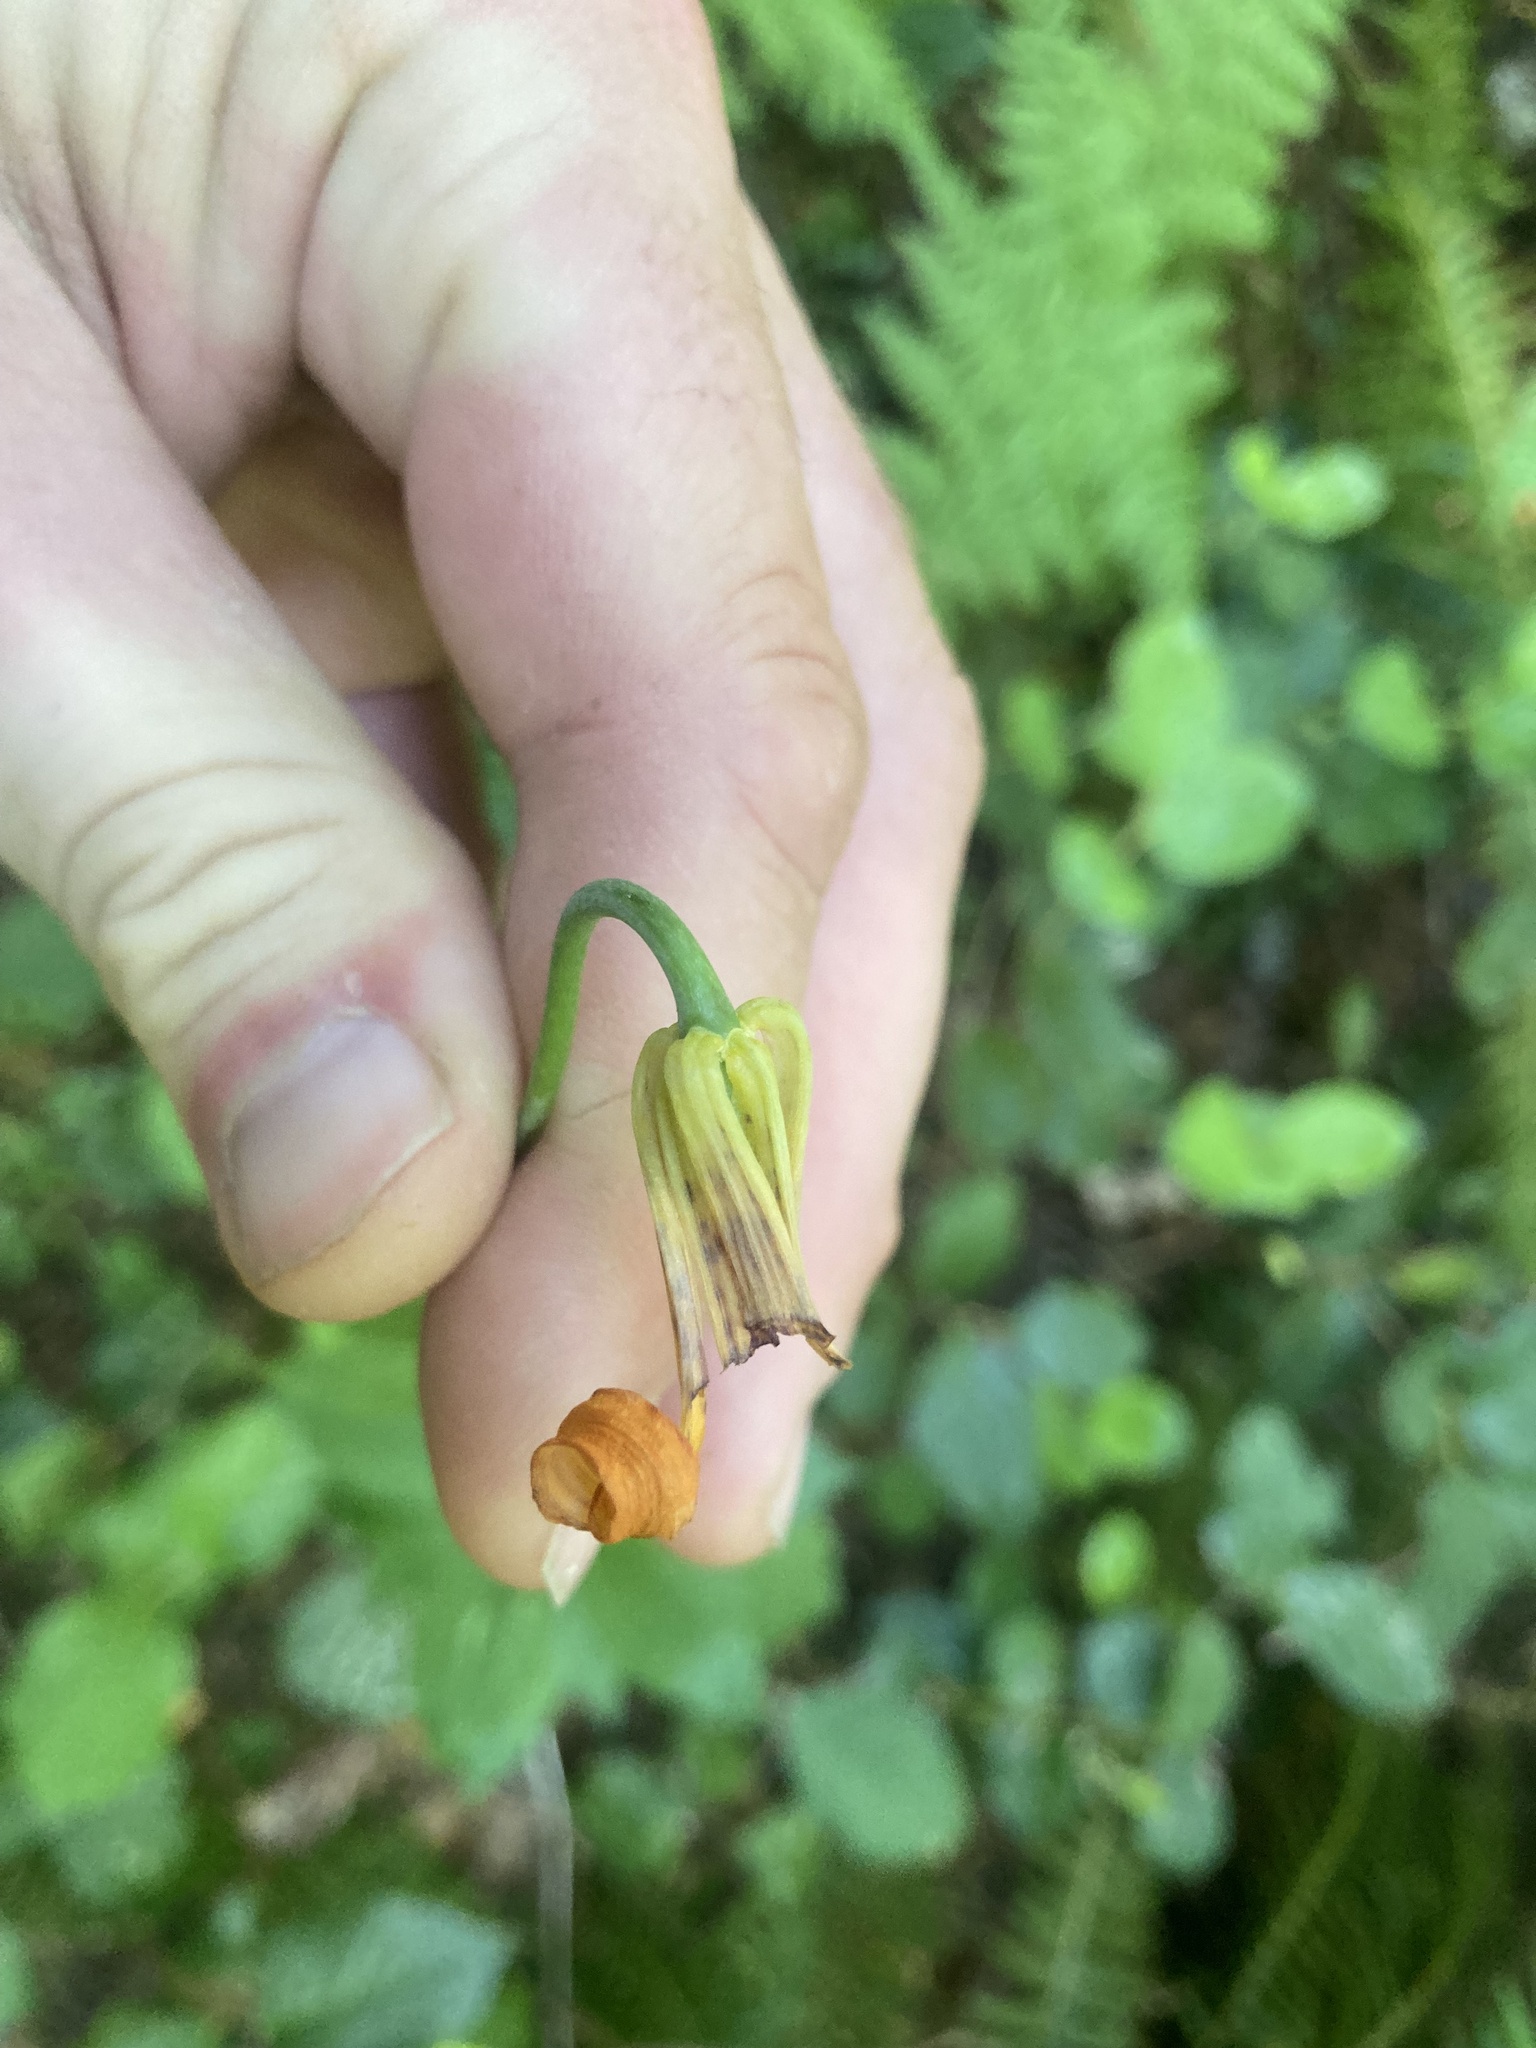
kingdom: Plantae
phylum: Tracheophyta
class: Liliopsida
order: Liliales
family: Liliaceae
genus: Lilium
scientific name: Lilium columbianum
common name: Columbia lily
